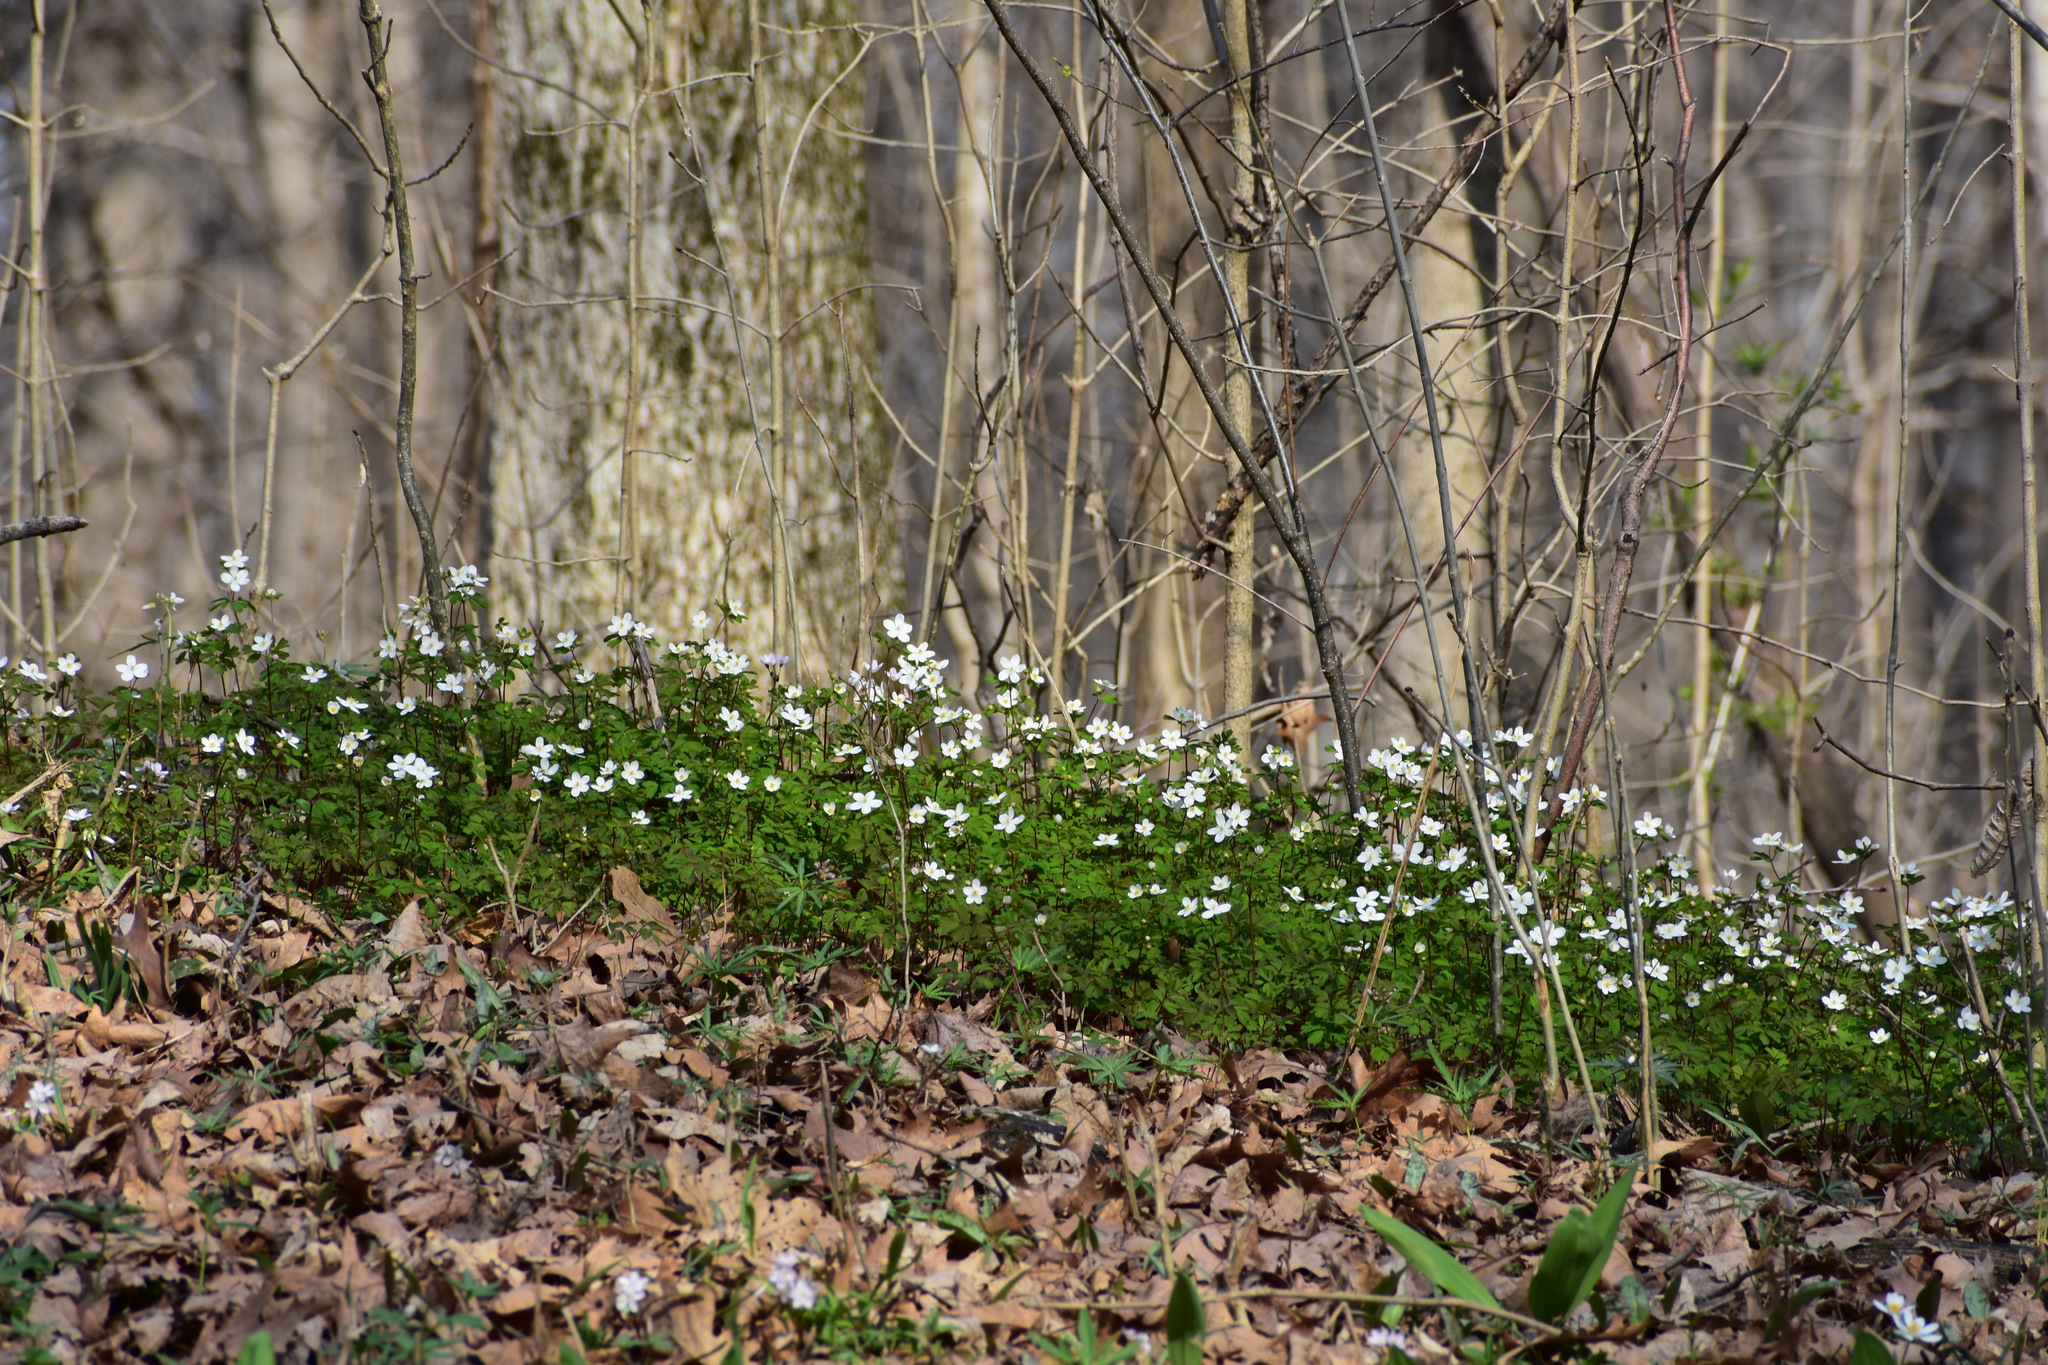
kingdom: Plantae
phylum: Tracheophyta
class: Magnoliopsida
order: Ranunculales
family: Ranunculaceae
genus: Enemion
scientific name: Enemion biternatum
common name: Eastern false rue-anemone
